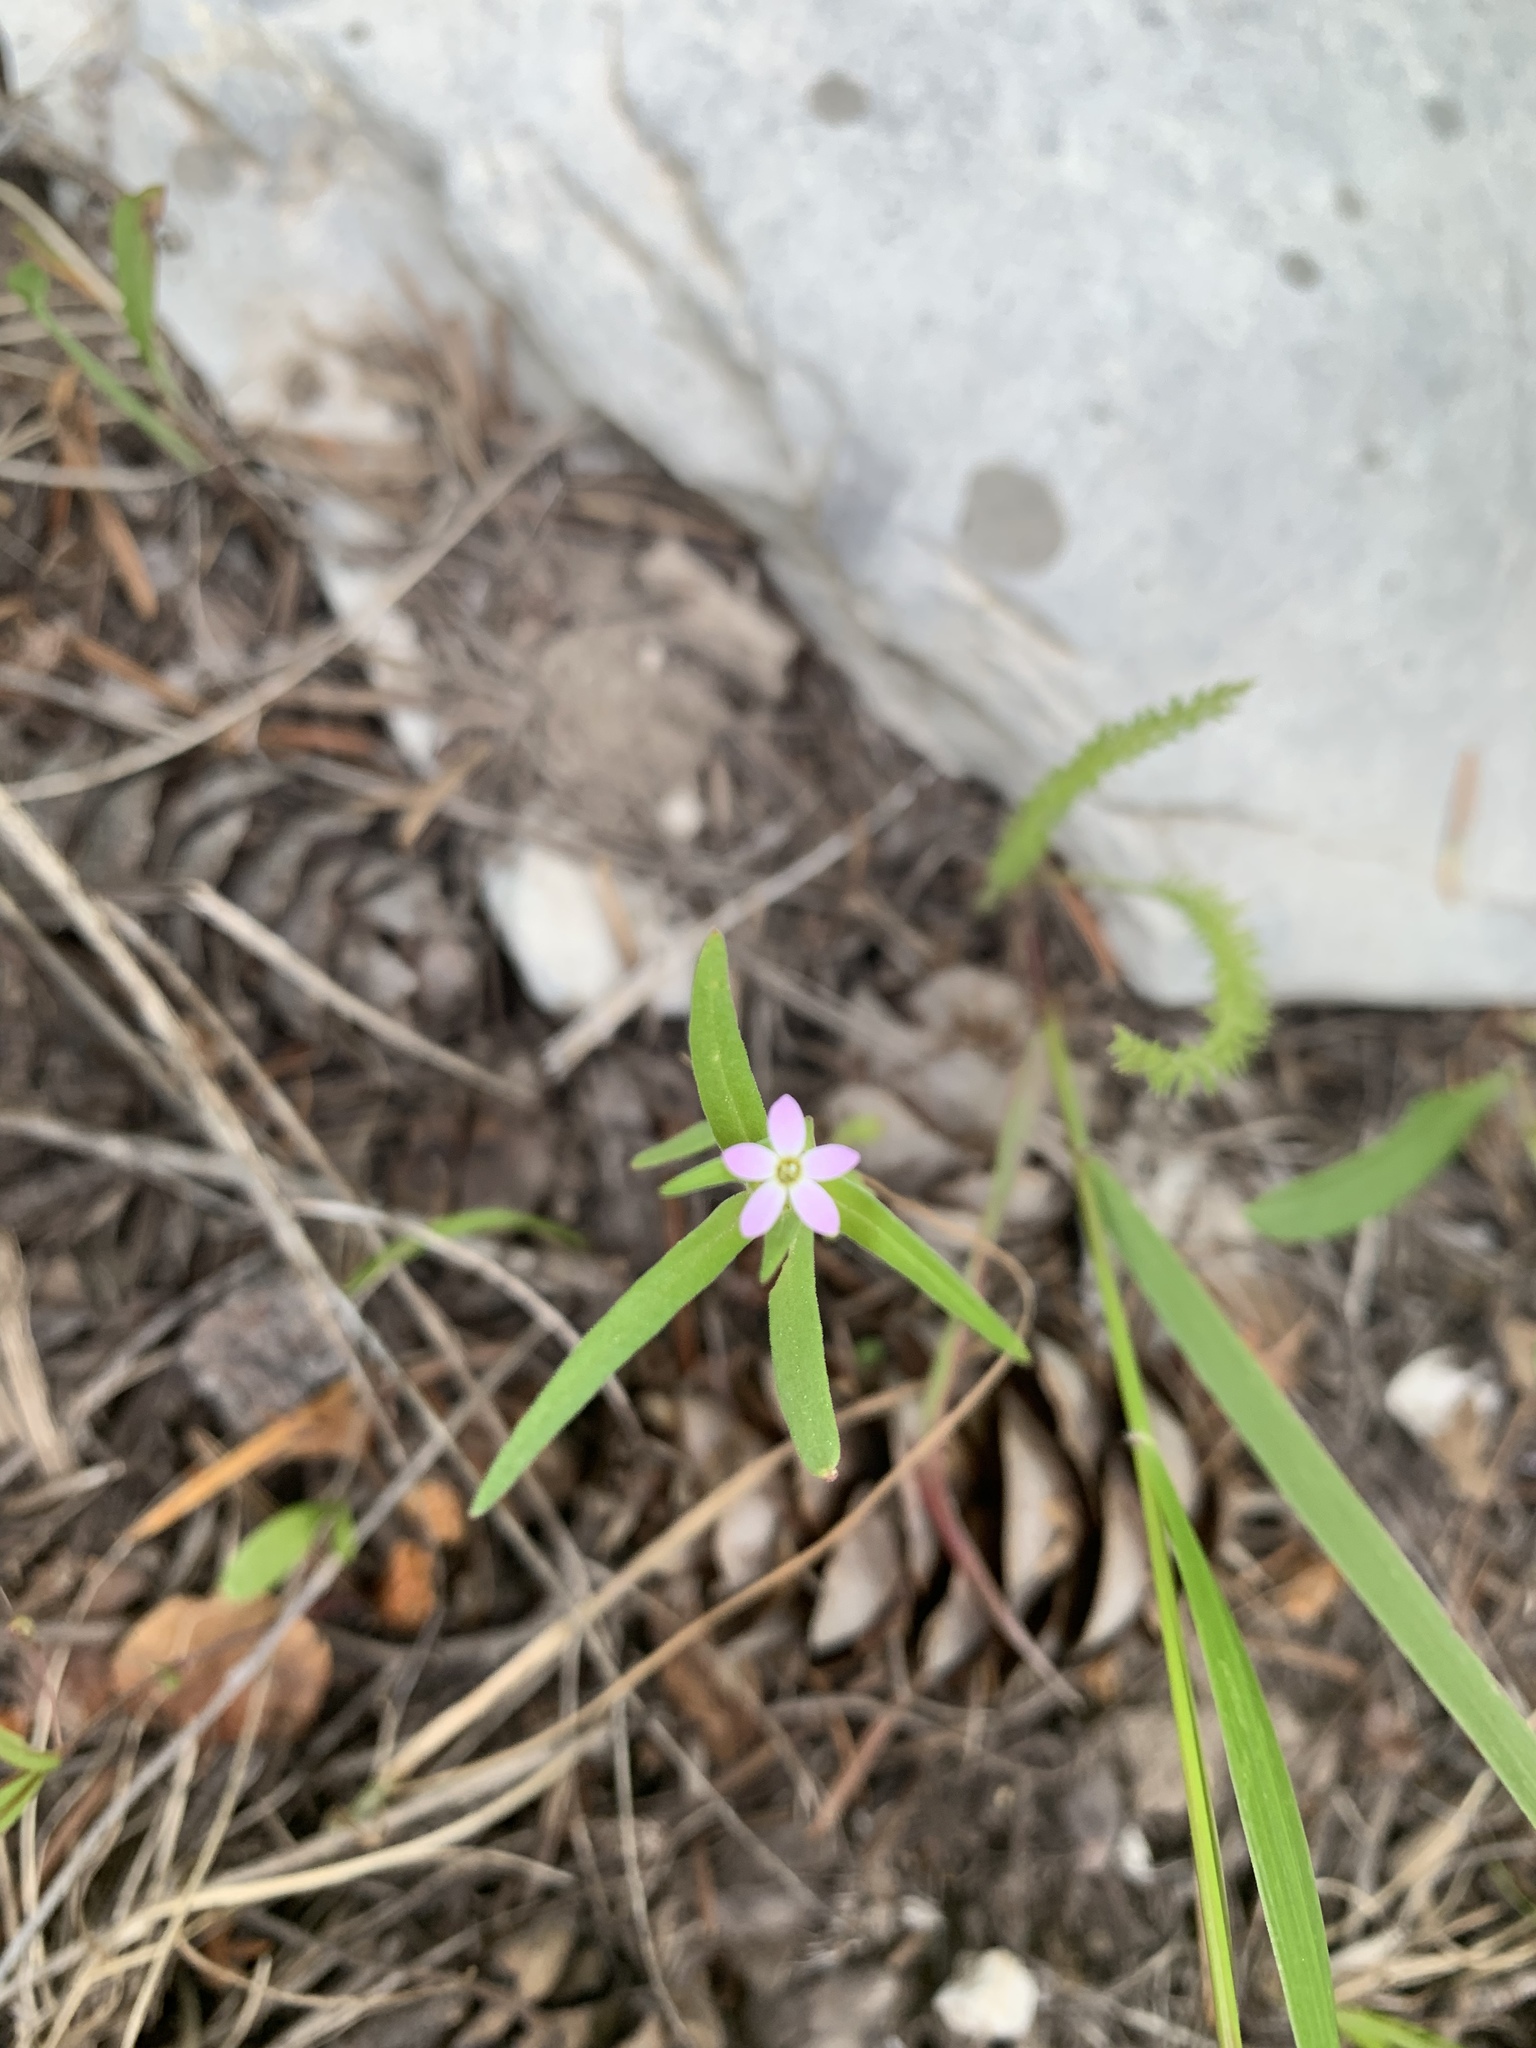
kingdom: Plantae
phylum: Tracheophyta
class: Magnoliopsida
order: Ericales
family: Polemoniaceae
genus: Collomia
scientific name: Collomia linearis
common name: Tiny trumpet
